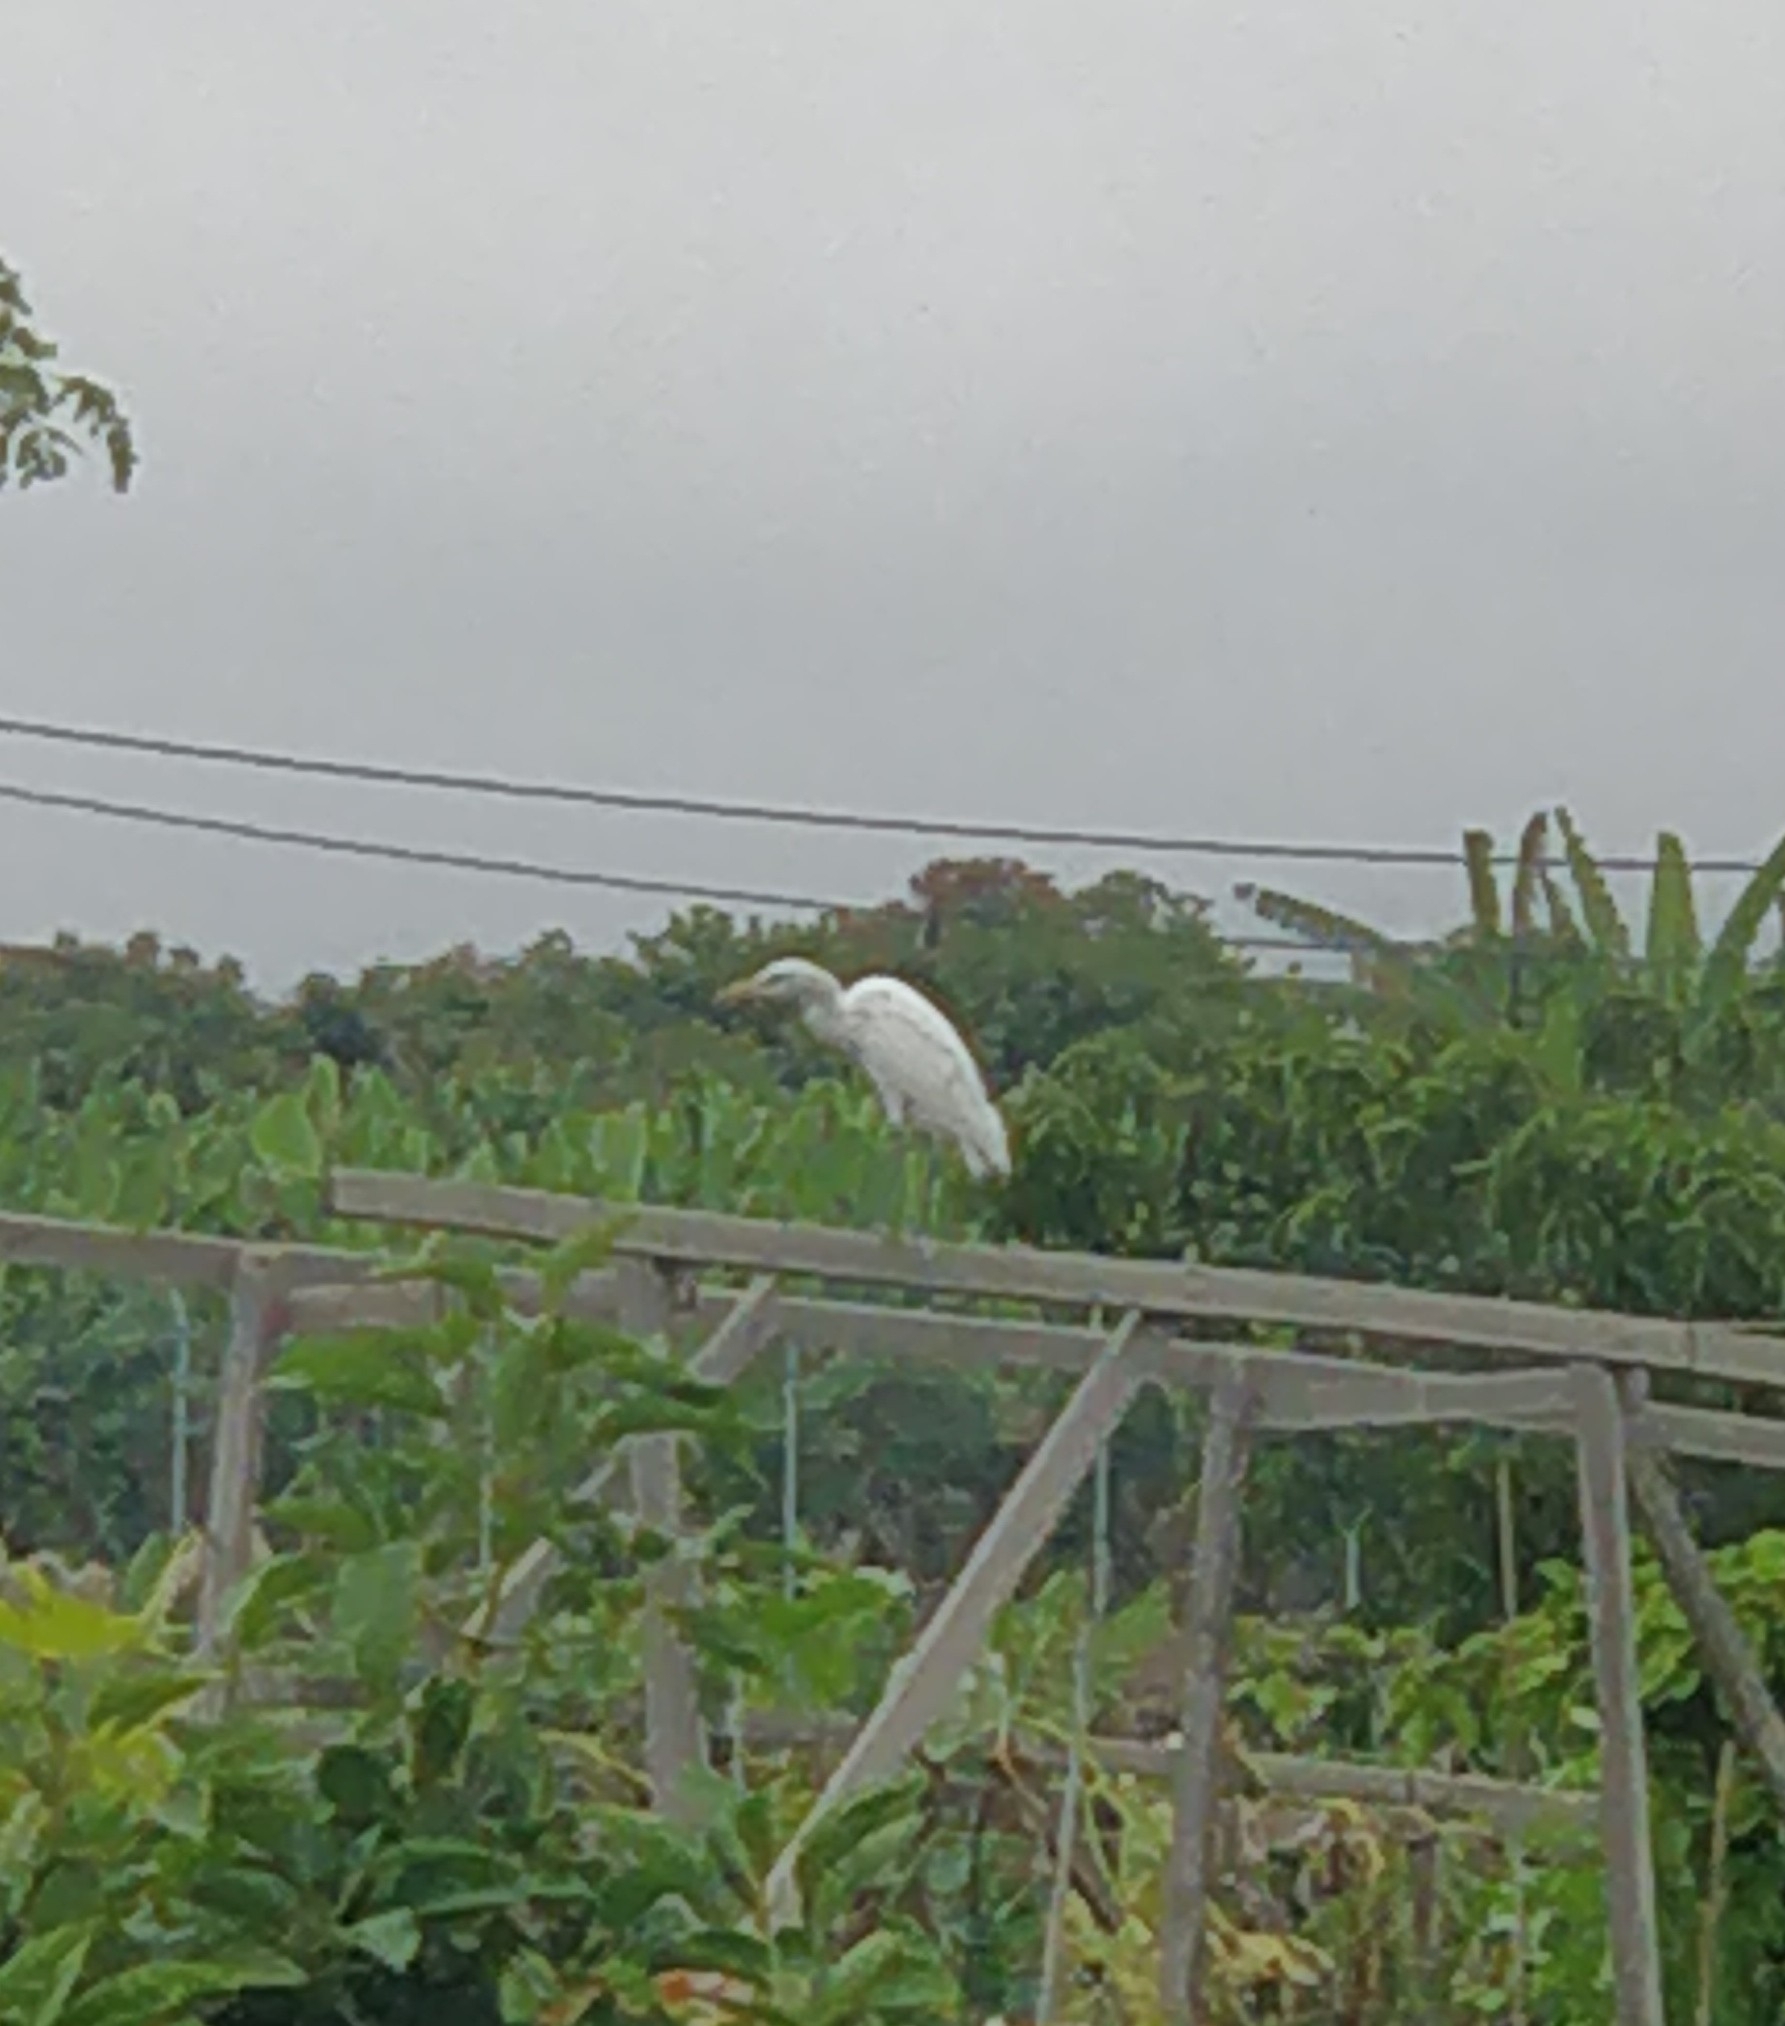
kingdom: Animalia
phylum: Chordata
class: Aves
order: Pelecaniformes
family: Ardeidae
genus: Bubulcus
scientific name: Bubulcus ibis
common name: Cattle egret
